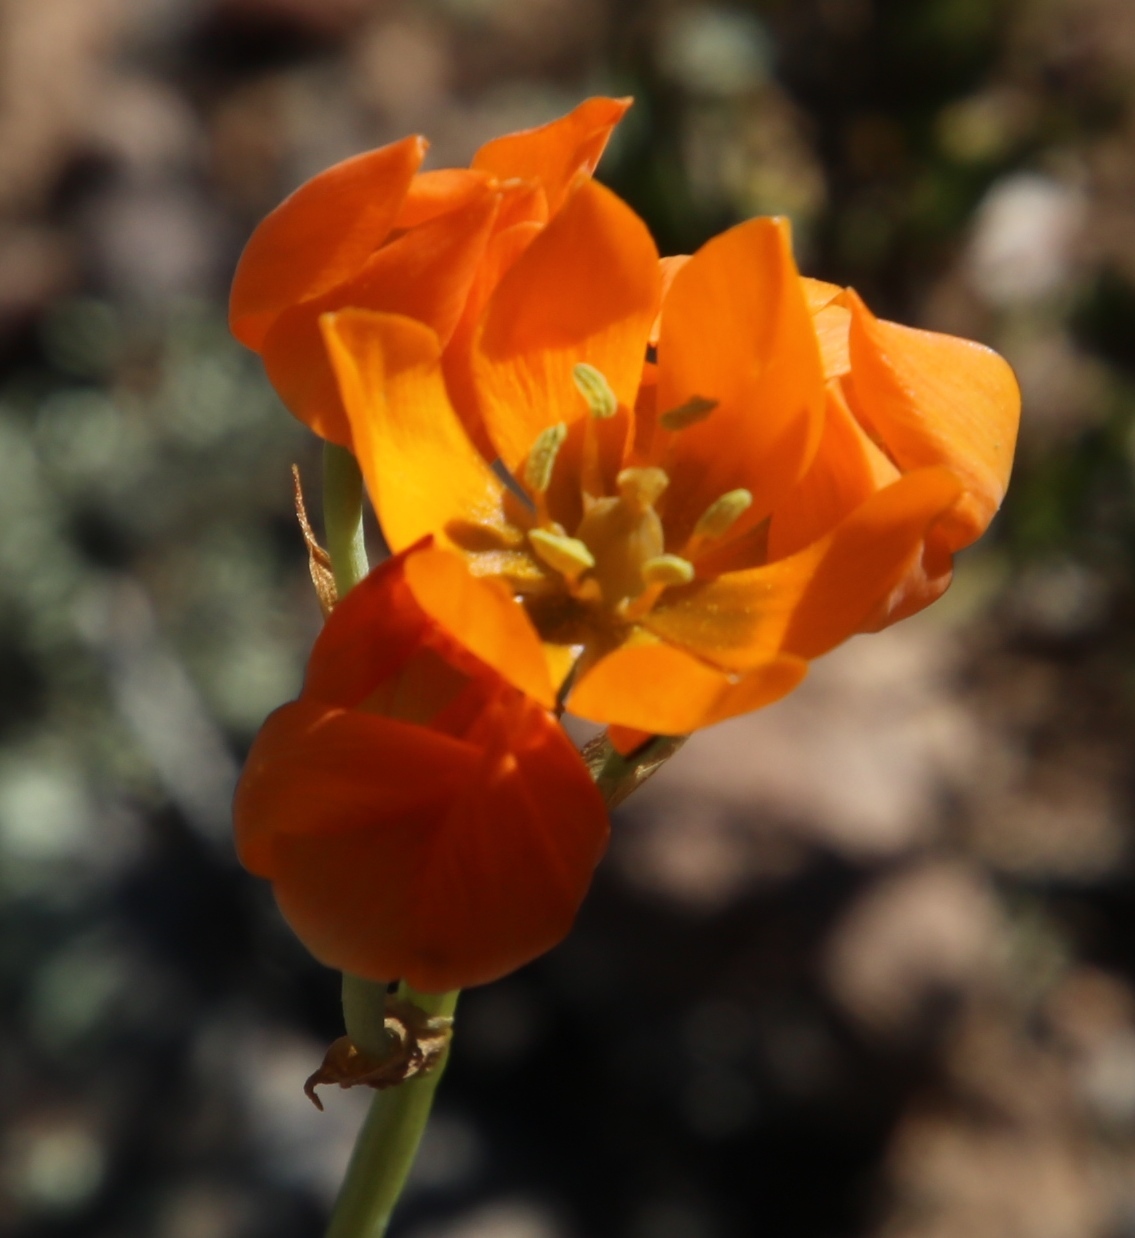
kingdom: Plantae
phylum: Tracheophyta
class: Liliopsida
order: Asparagales
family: Asparagaceae
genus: Ornithogalum
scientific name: Ornithogalum maculatum
